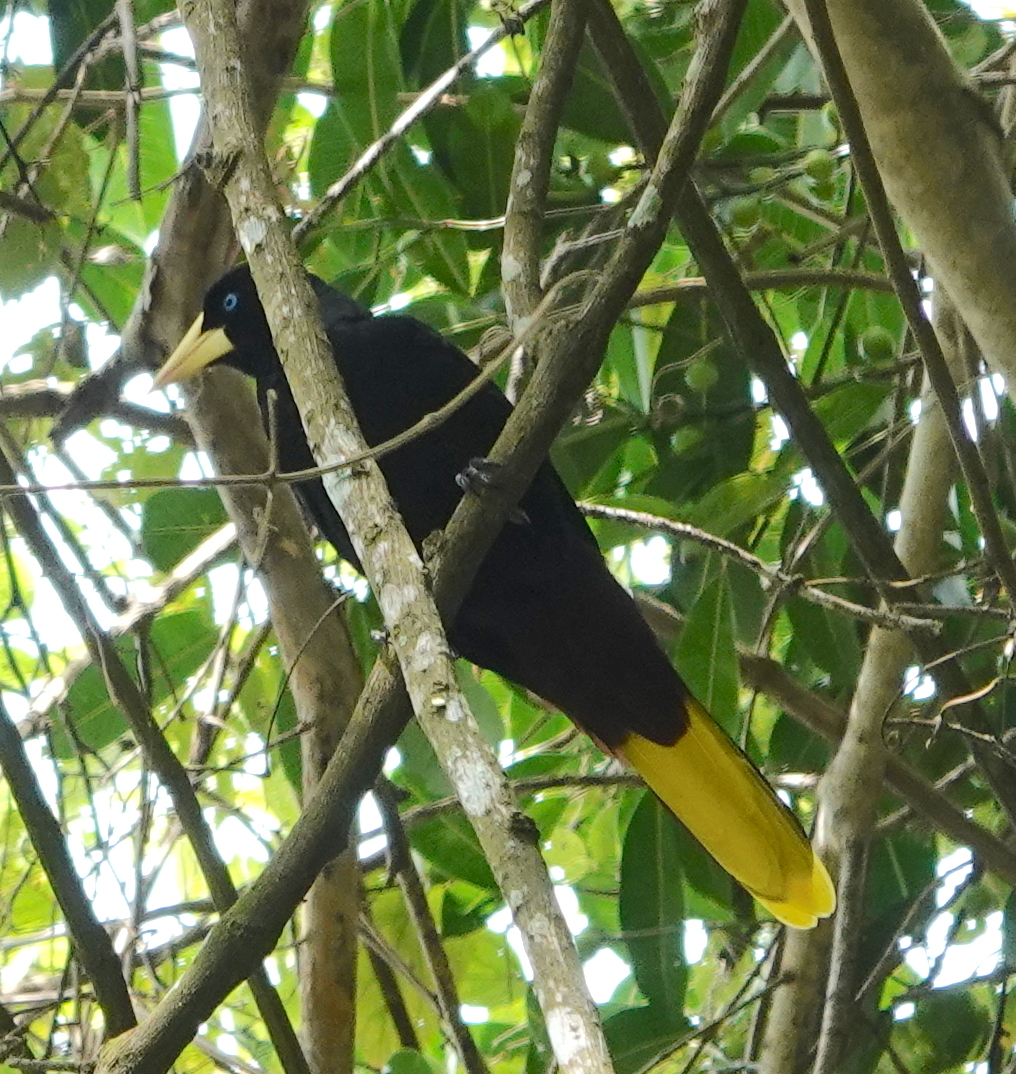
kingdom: Animalia
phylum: Chordata
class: Aves
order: Passeriformes
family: Icteridae
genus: Psarocolius
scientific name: Psarocolius decumanus
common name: Crested oropendola
